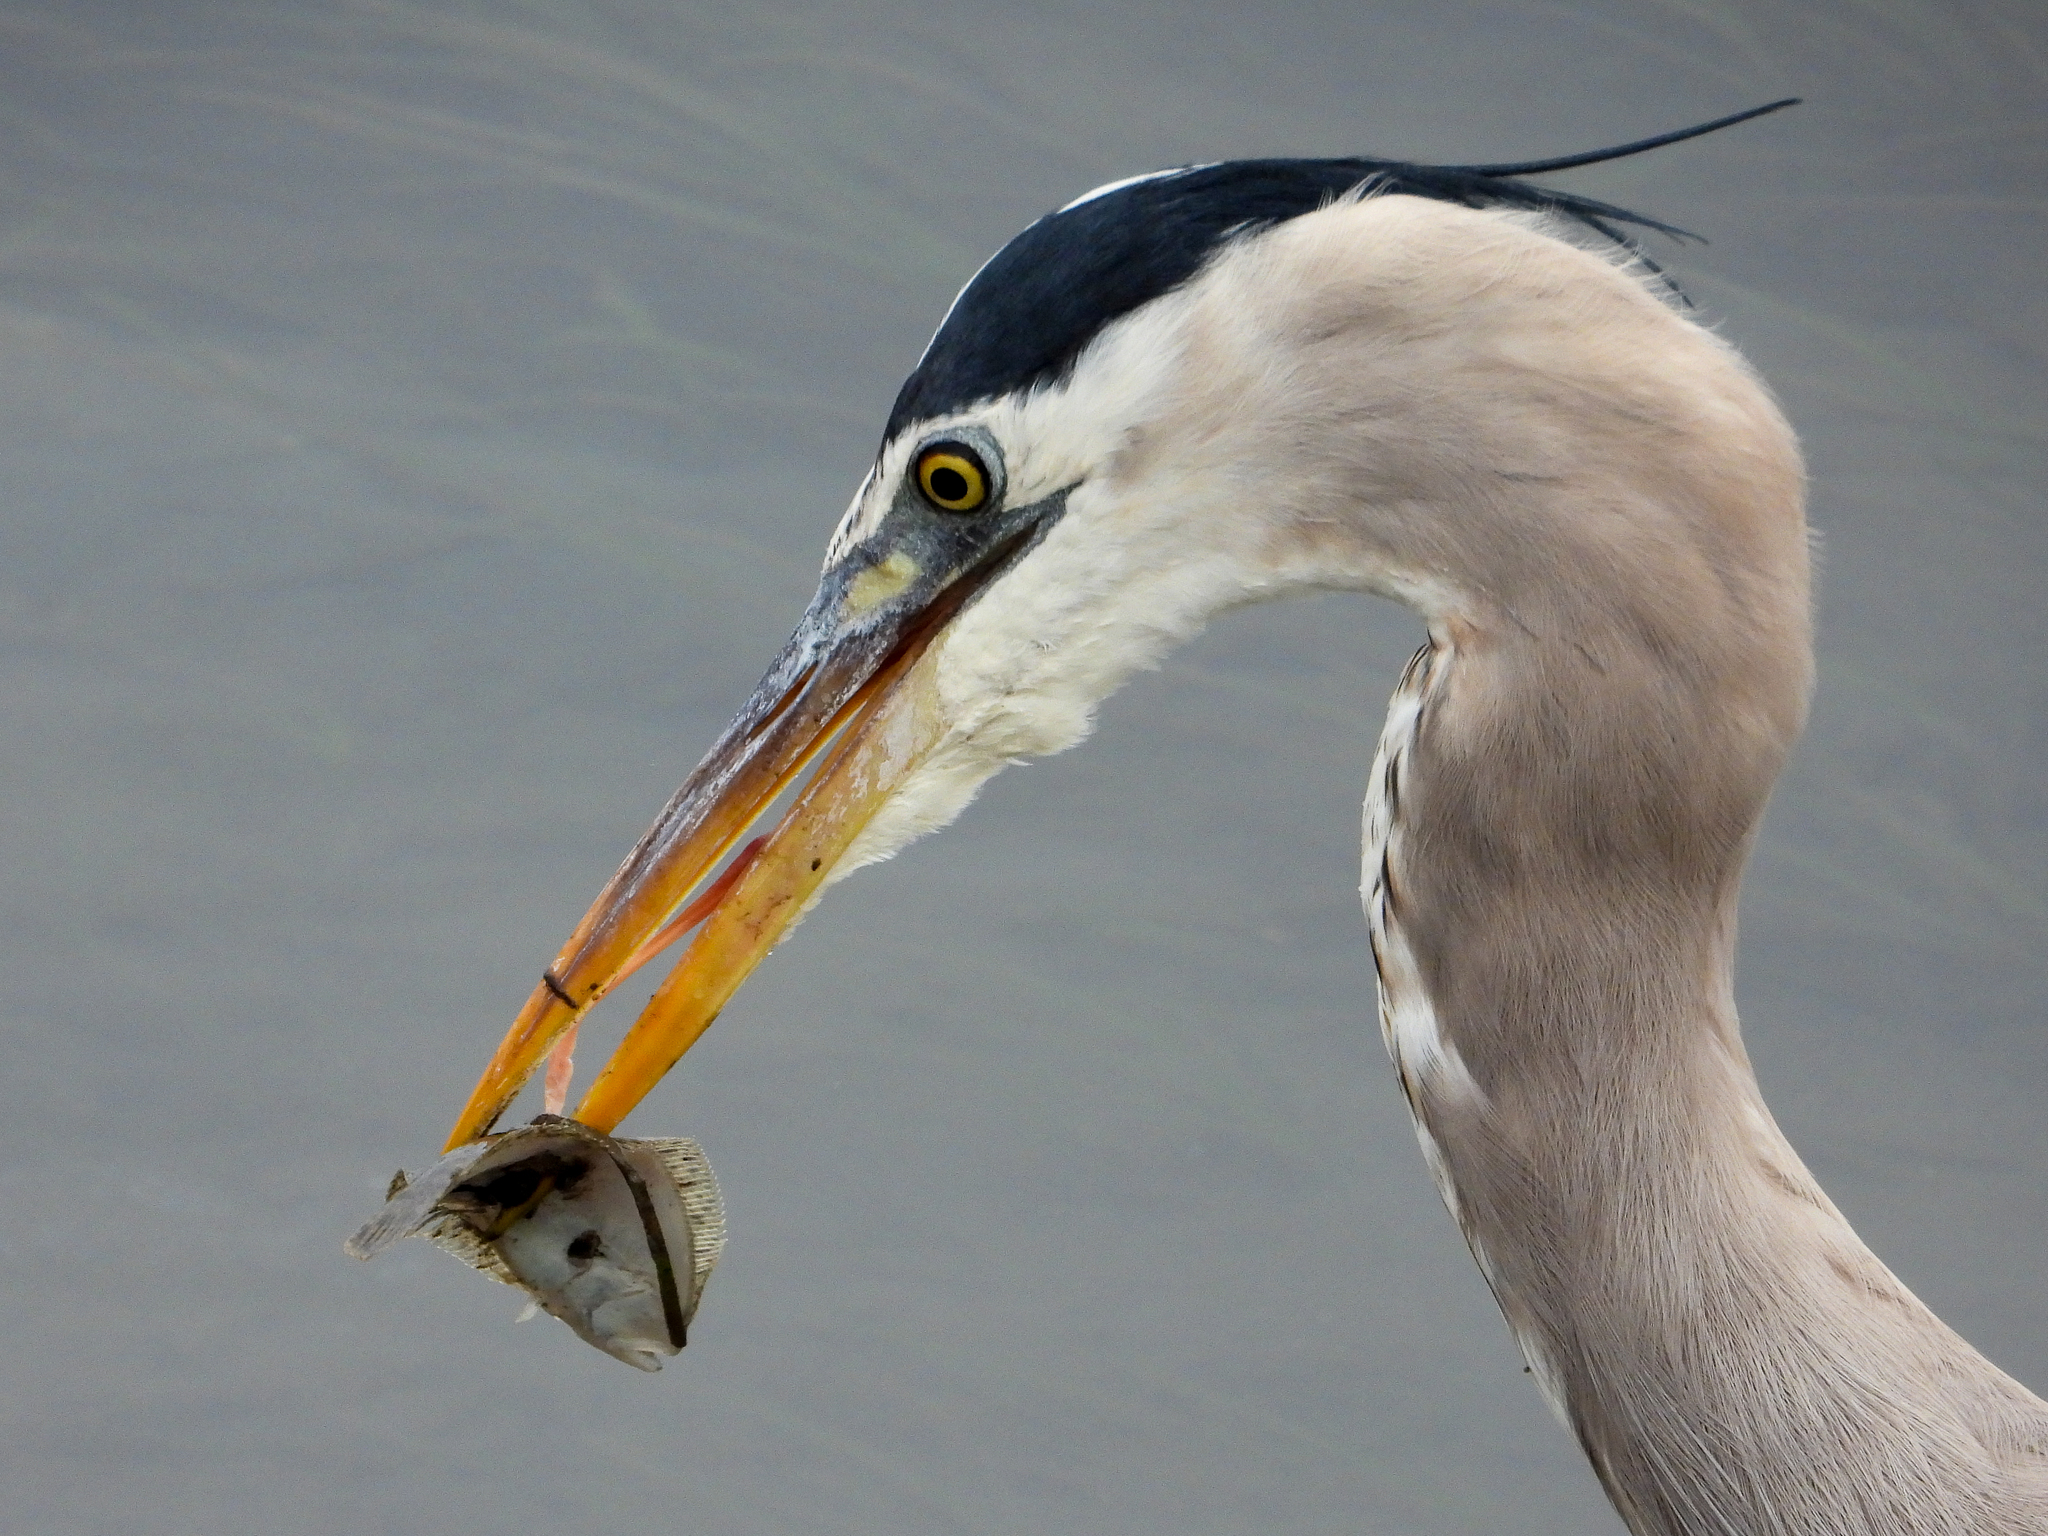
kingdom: Animalia
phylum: Chordata
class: Aves
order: Pelecaniformes
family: Ardeidae
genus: Ardea
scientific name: Ardea herodias
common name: Great blue heron
